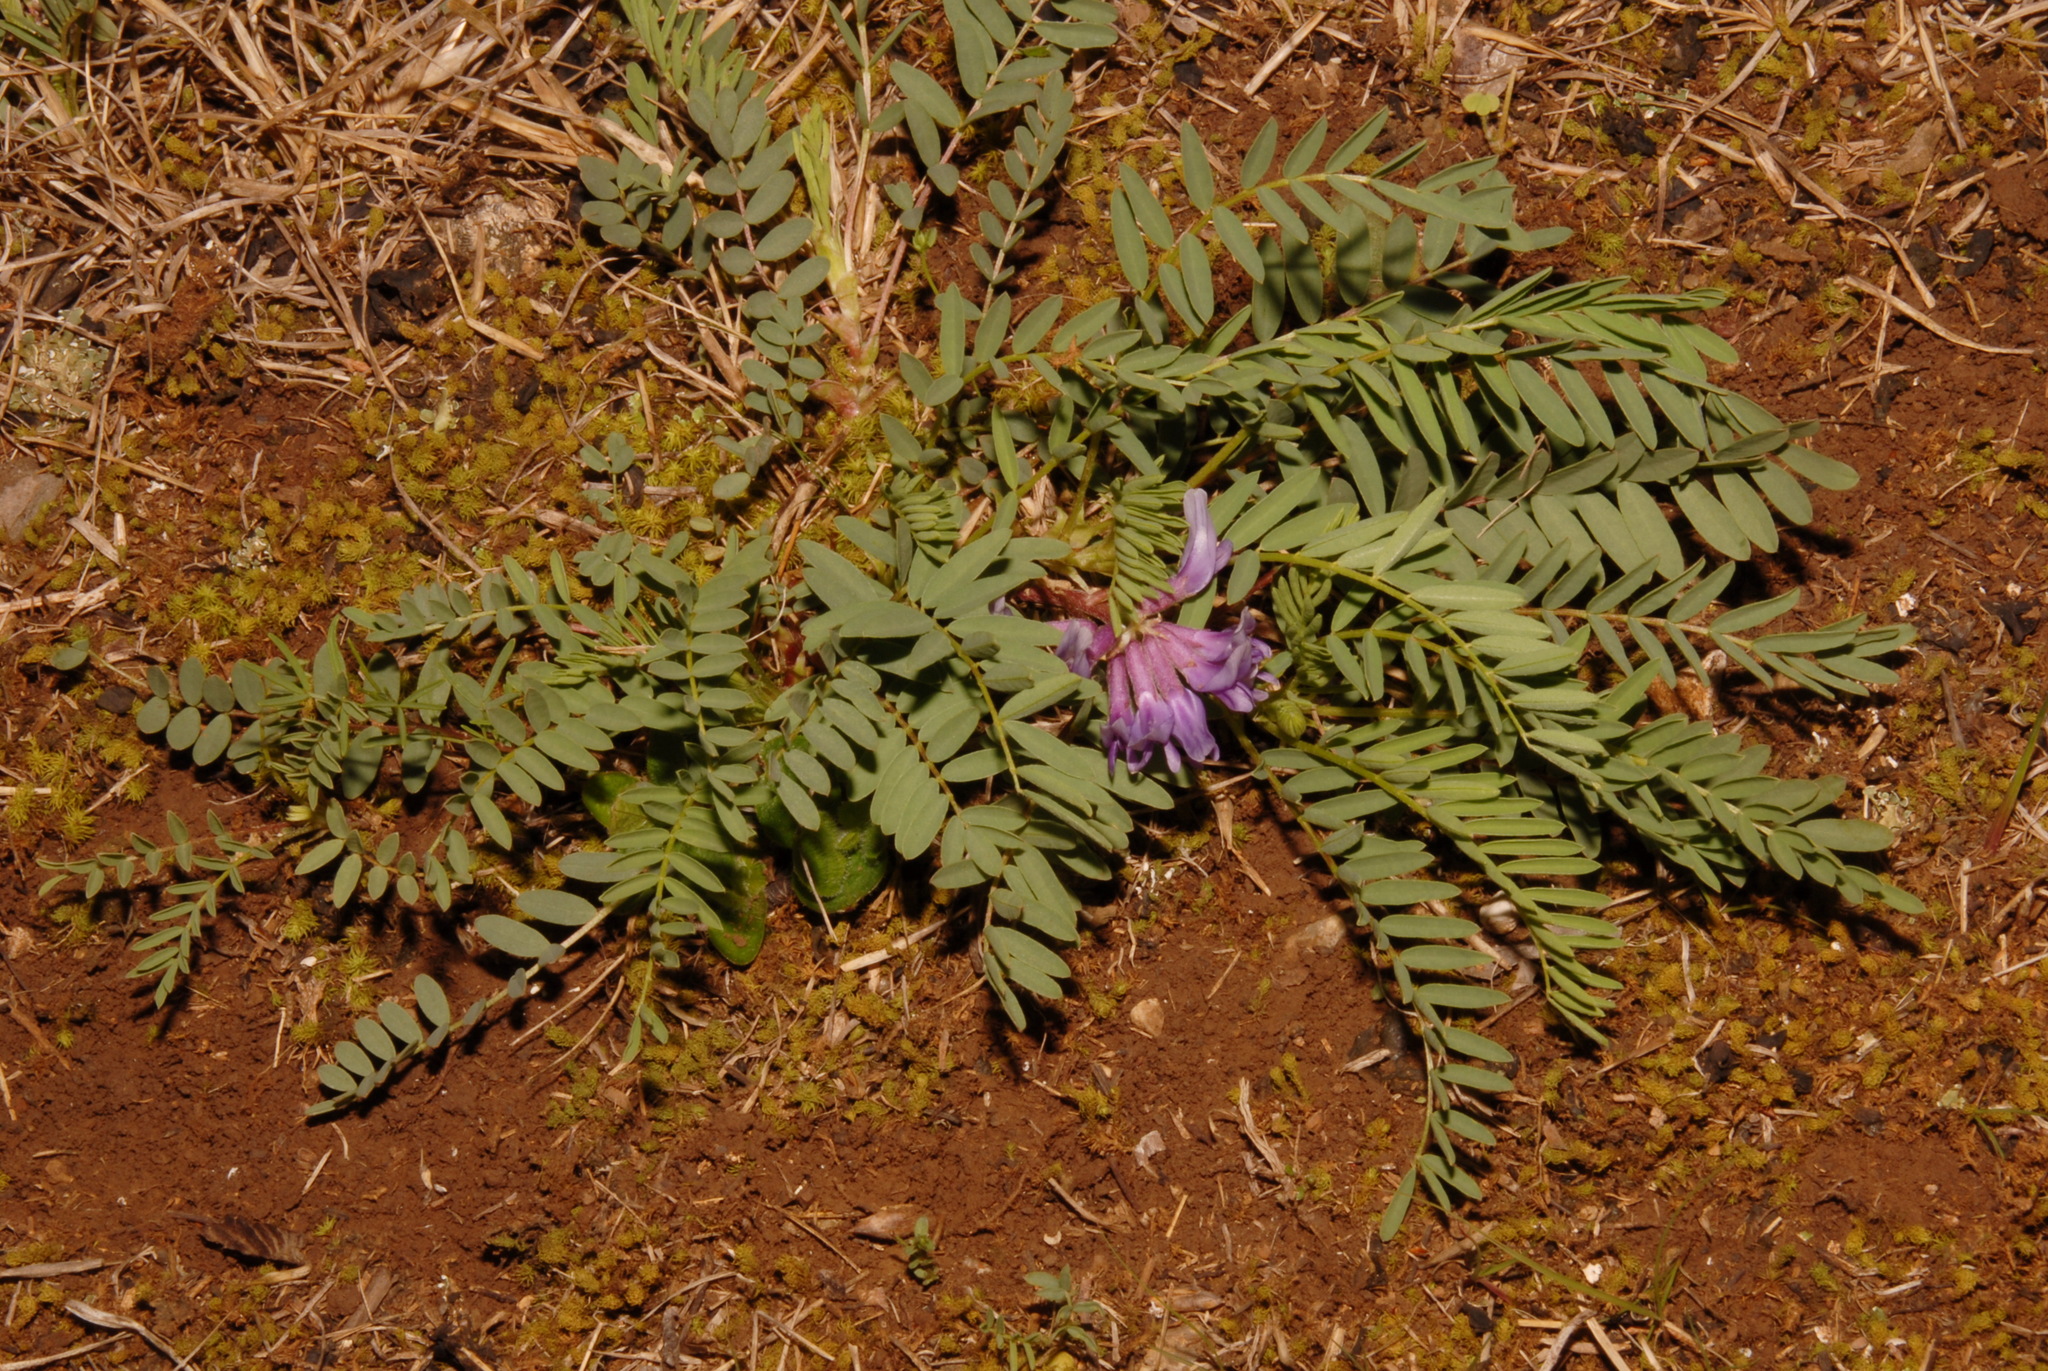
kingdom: Plantae
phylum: Tracheophyta
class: Magnoliopsida
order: Fabales
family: Fabaceae
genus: Astragalus
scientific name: Astragalus bibullatus
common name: Pyne's ground-plum
